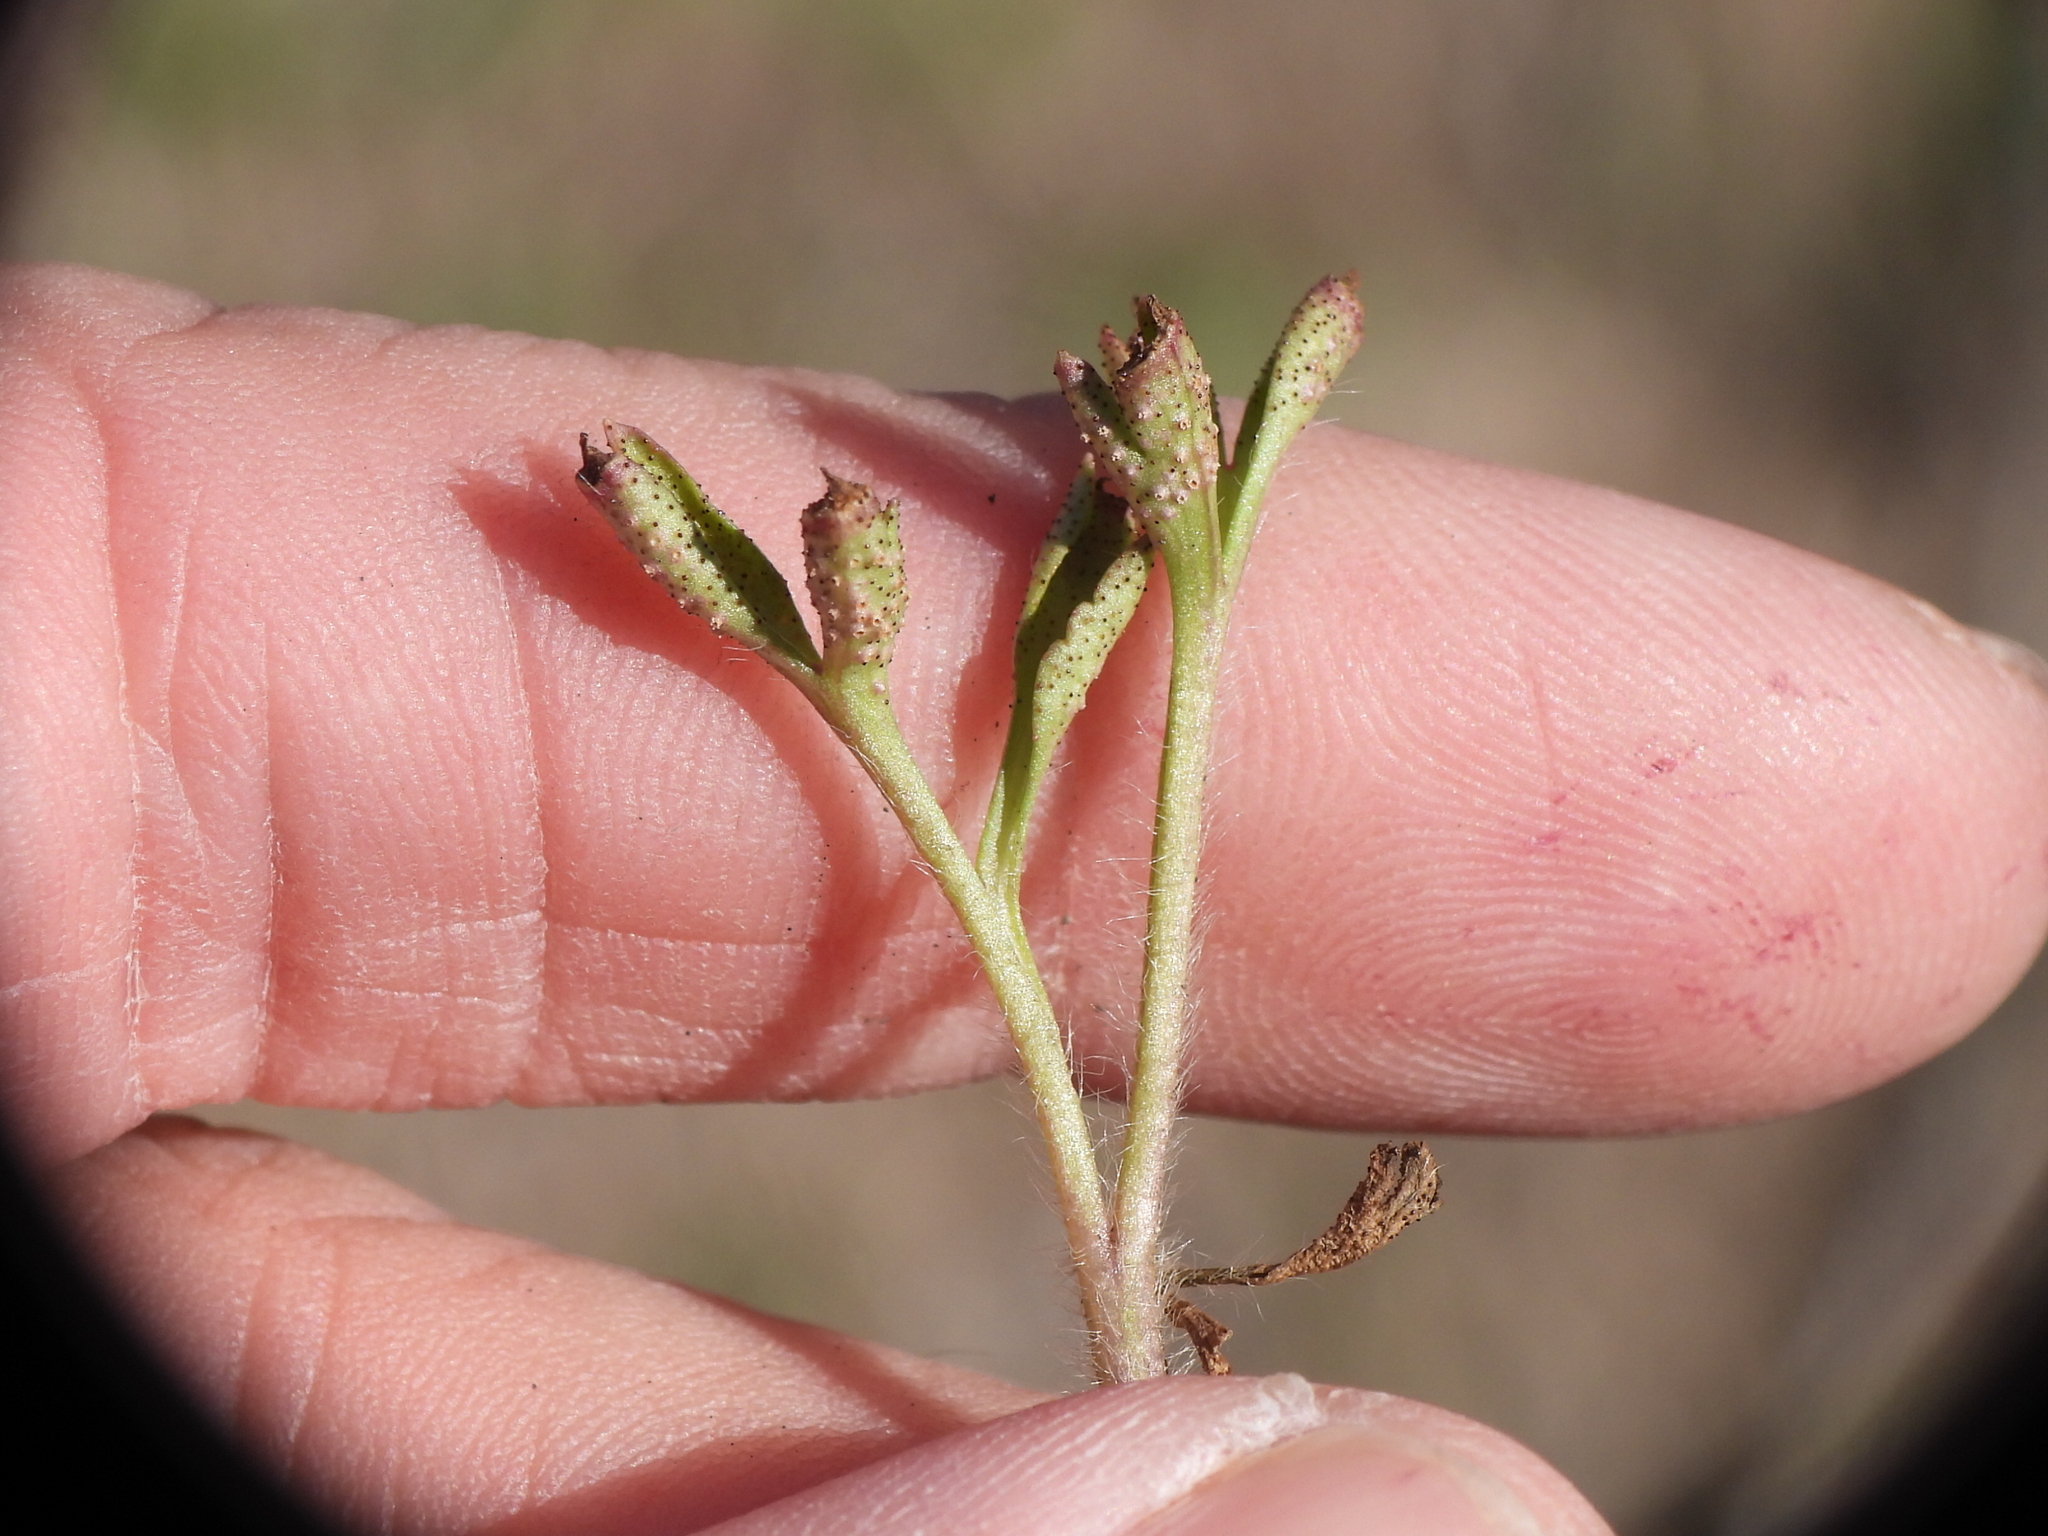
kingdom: Fungi
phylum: Basidiomycota
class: Pucciniomycetes
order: Pucciniales
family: Tranzscheliaceae
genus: Tranzschelia
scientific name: Tranzschelia cohaesa
